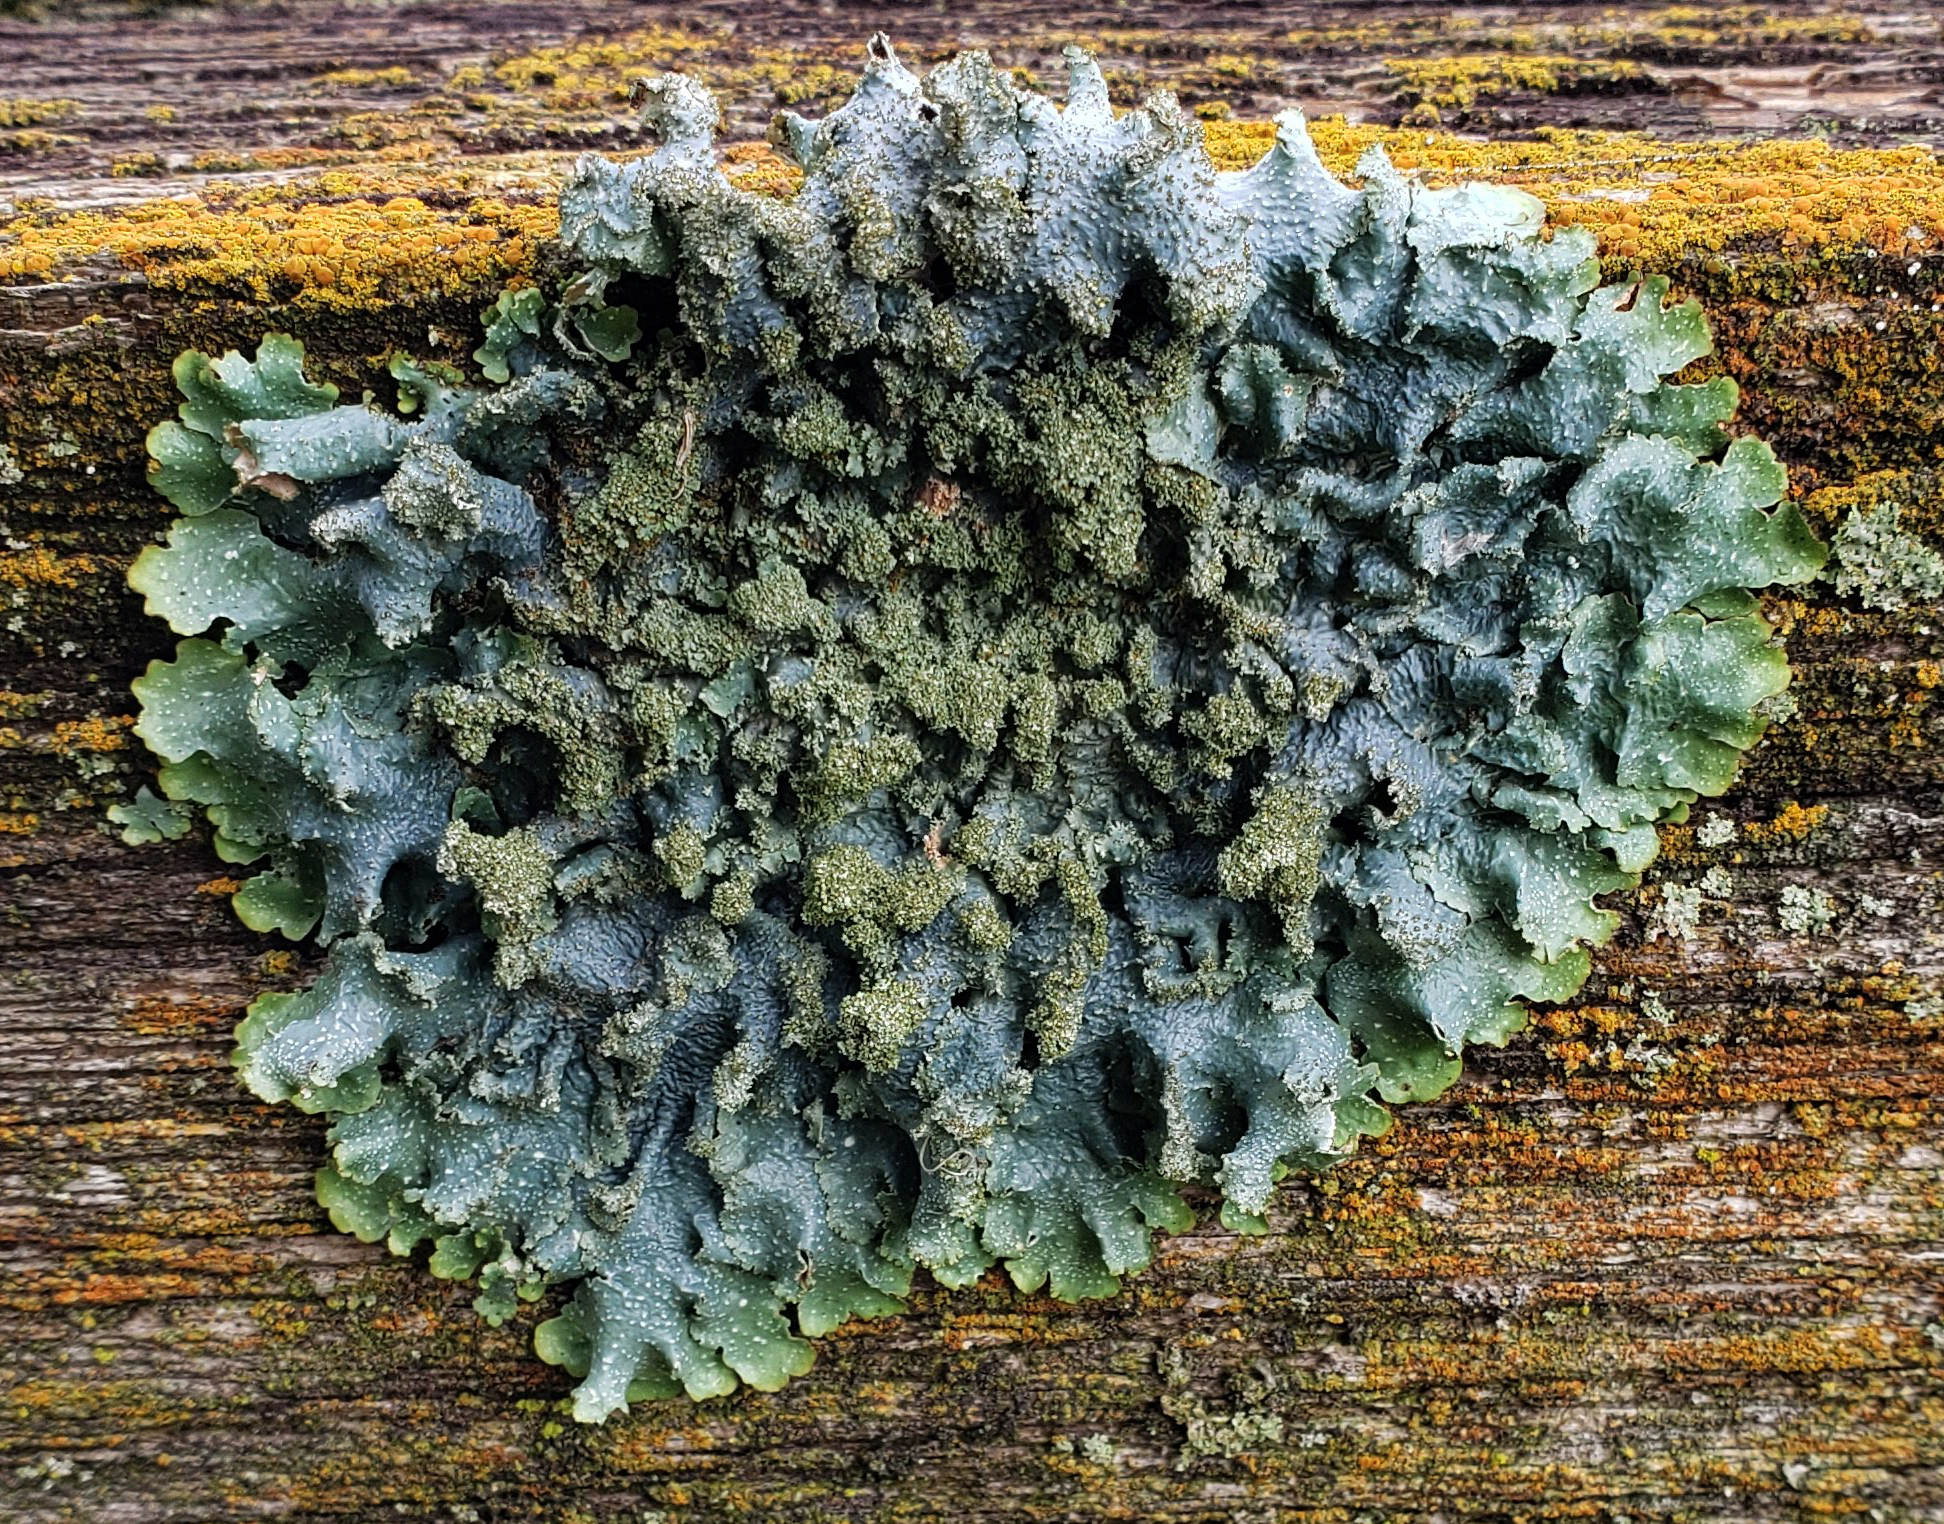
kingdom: Fungi
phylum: Ascomycota
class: Lecanoromycetes
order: Lecanorales
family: Parmeliaceae
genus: Punctelia
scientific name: Punctelia rudecta
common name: Rough speckled shield lichen
